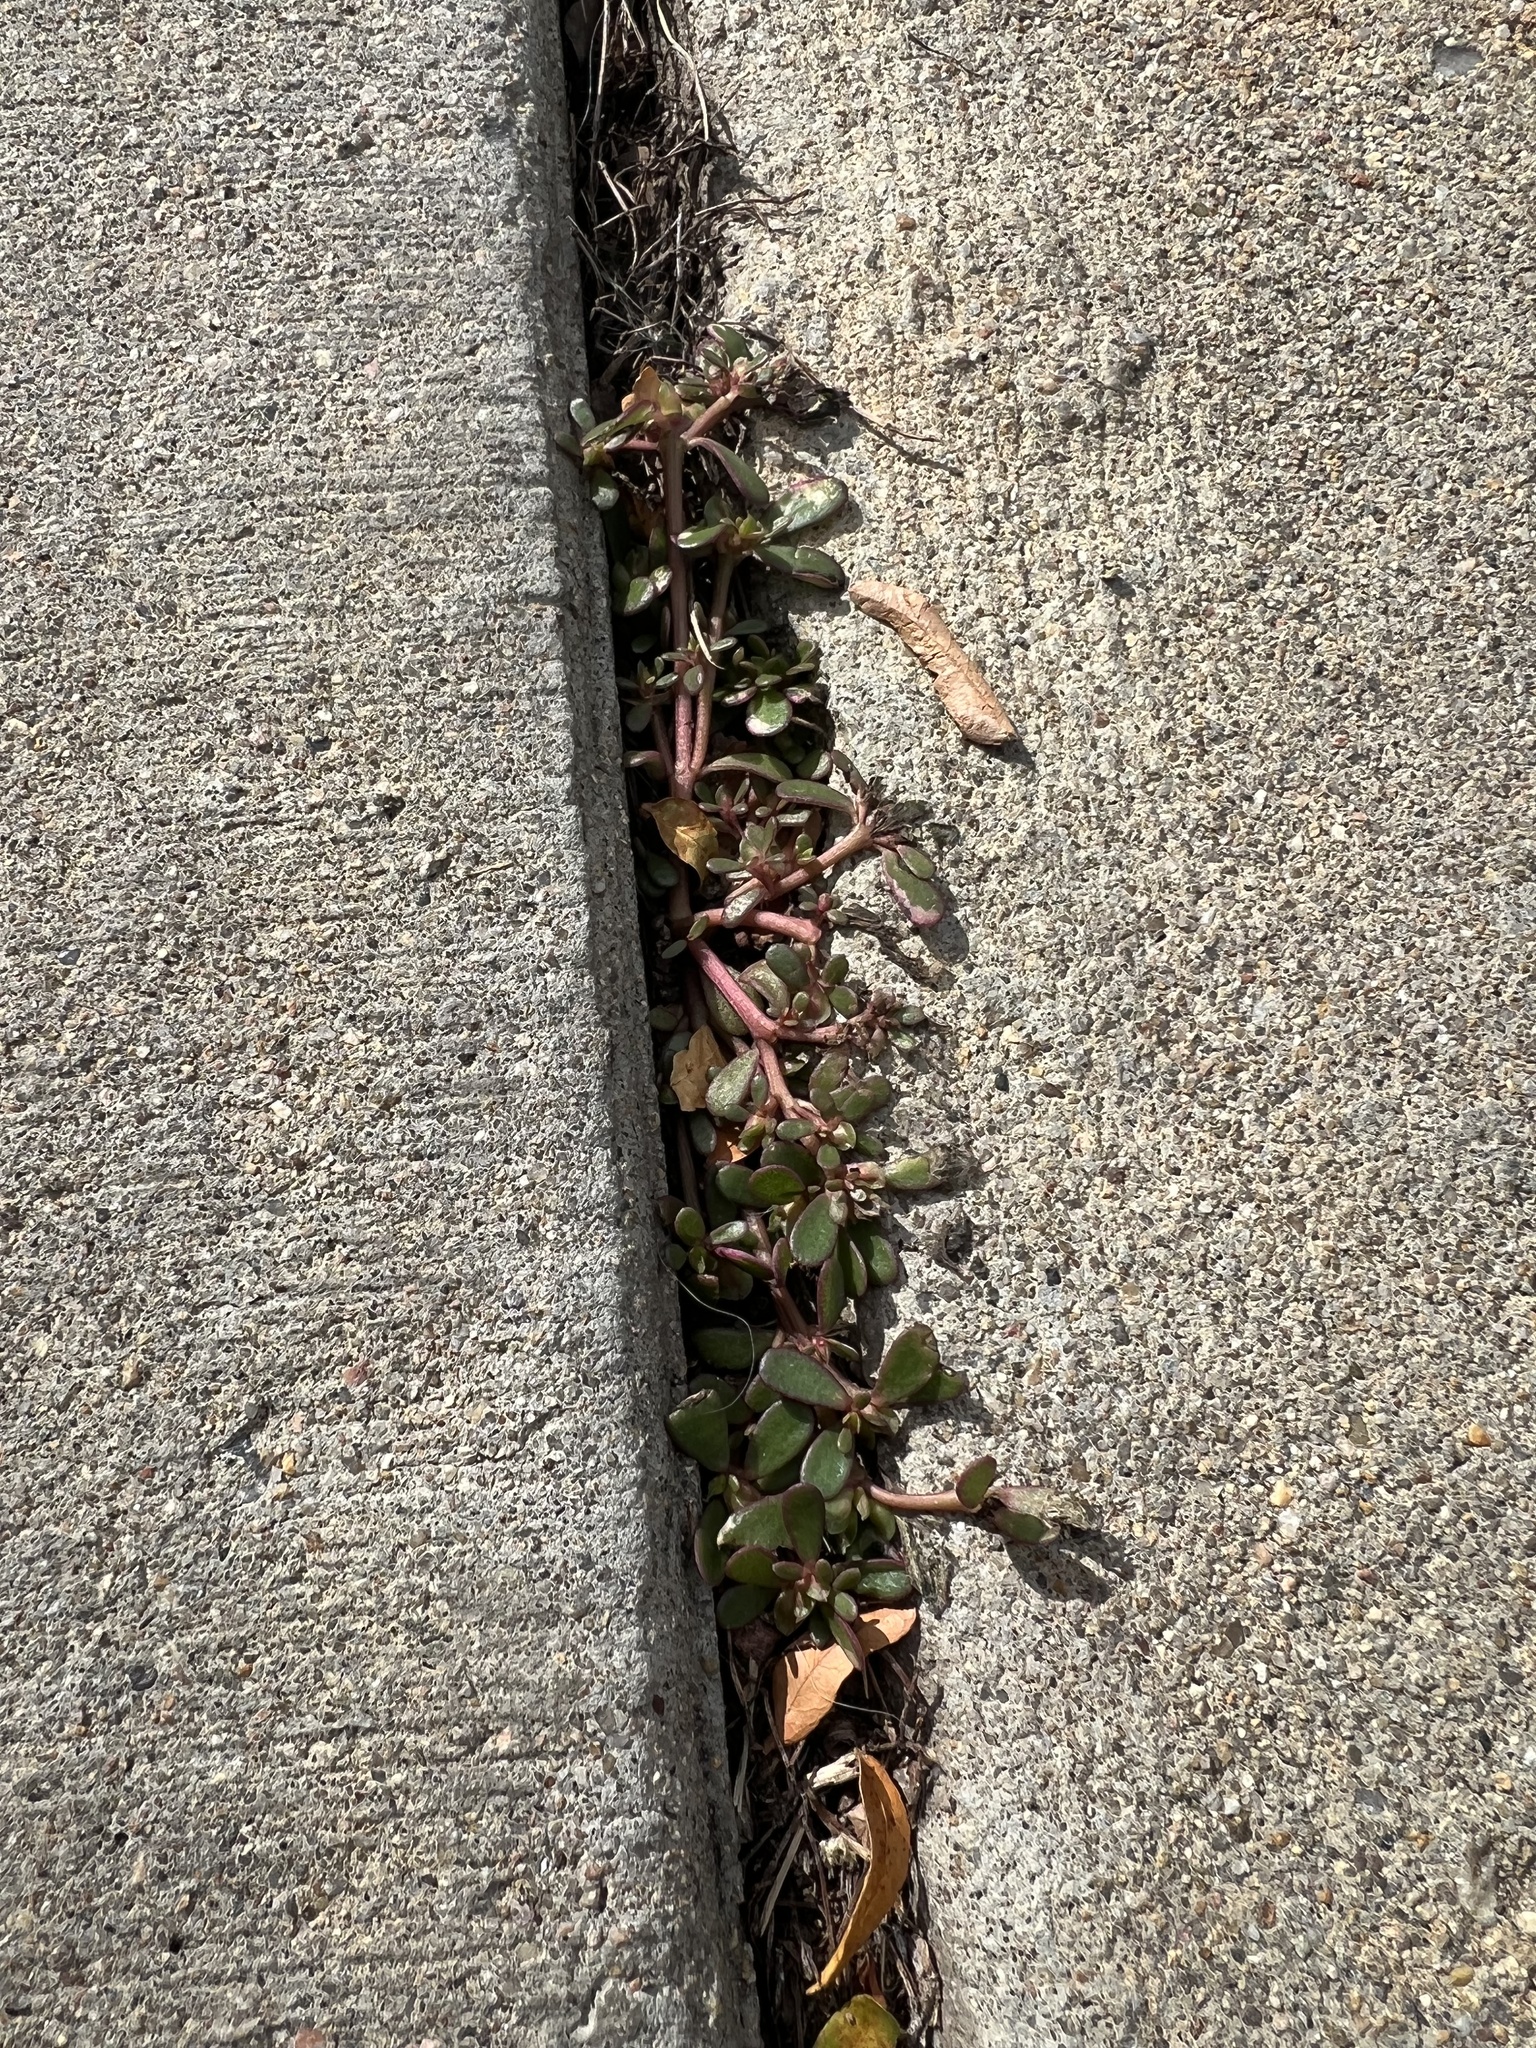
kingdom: Plantae
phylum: Tracheophyta
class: Magnoliopsida
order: Caryophyllales
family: Portulacaceae
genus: Portulaca
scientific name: Portulaca oleracea
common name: Common purslane
